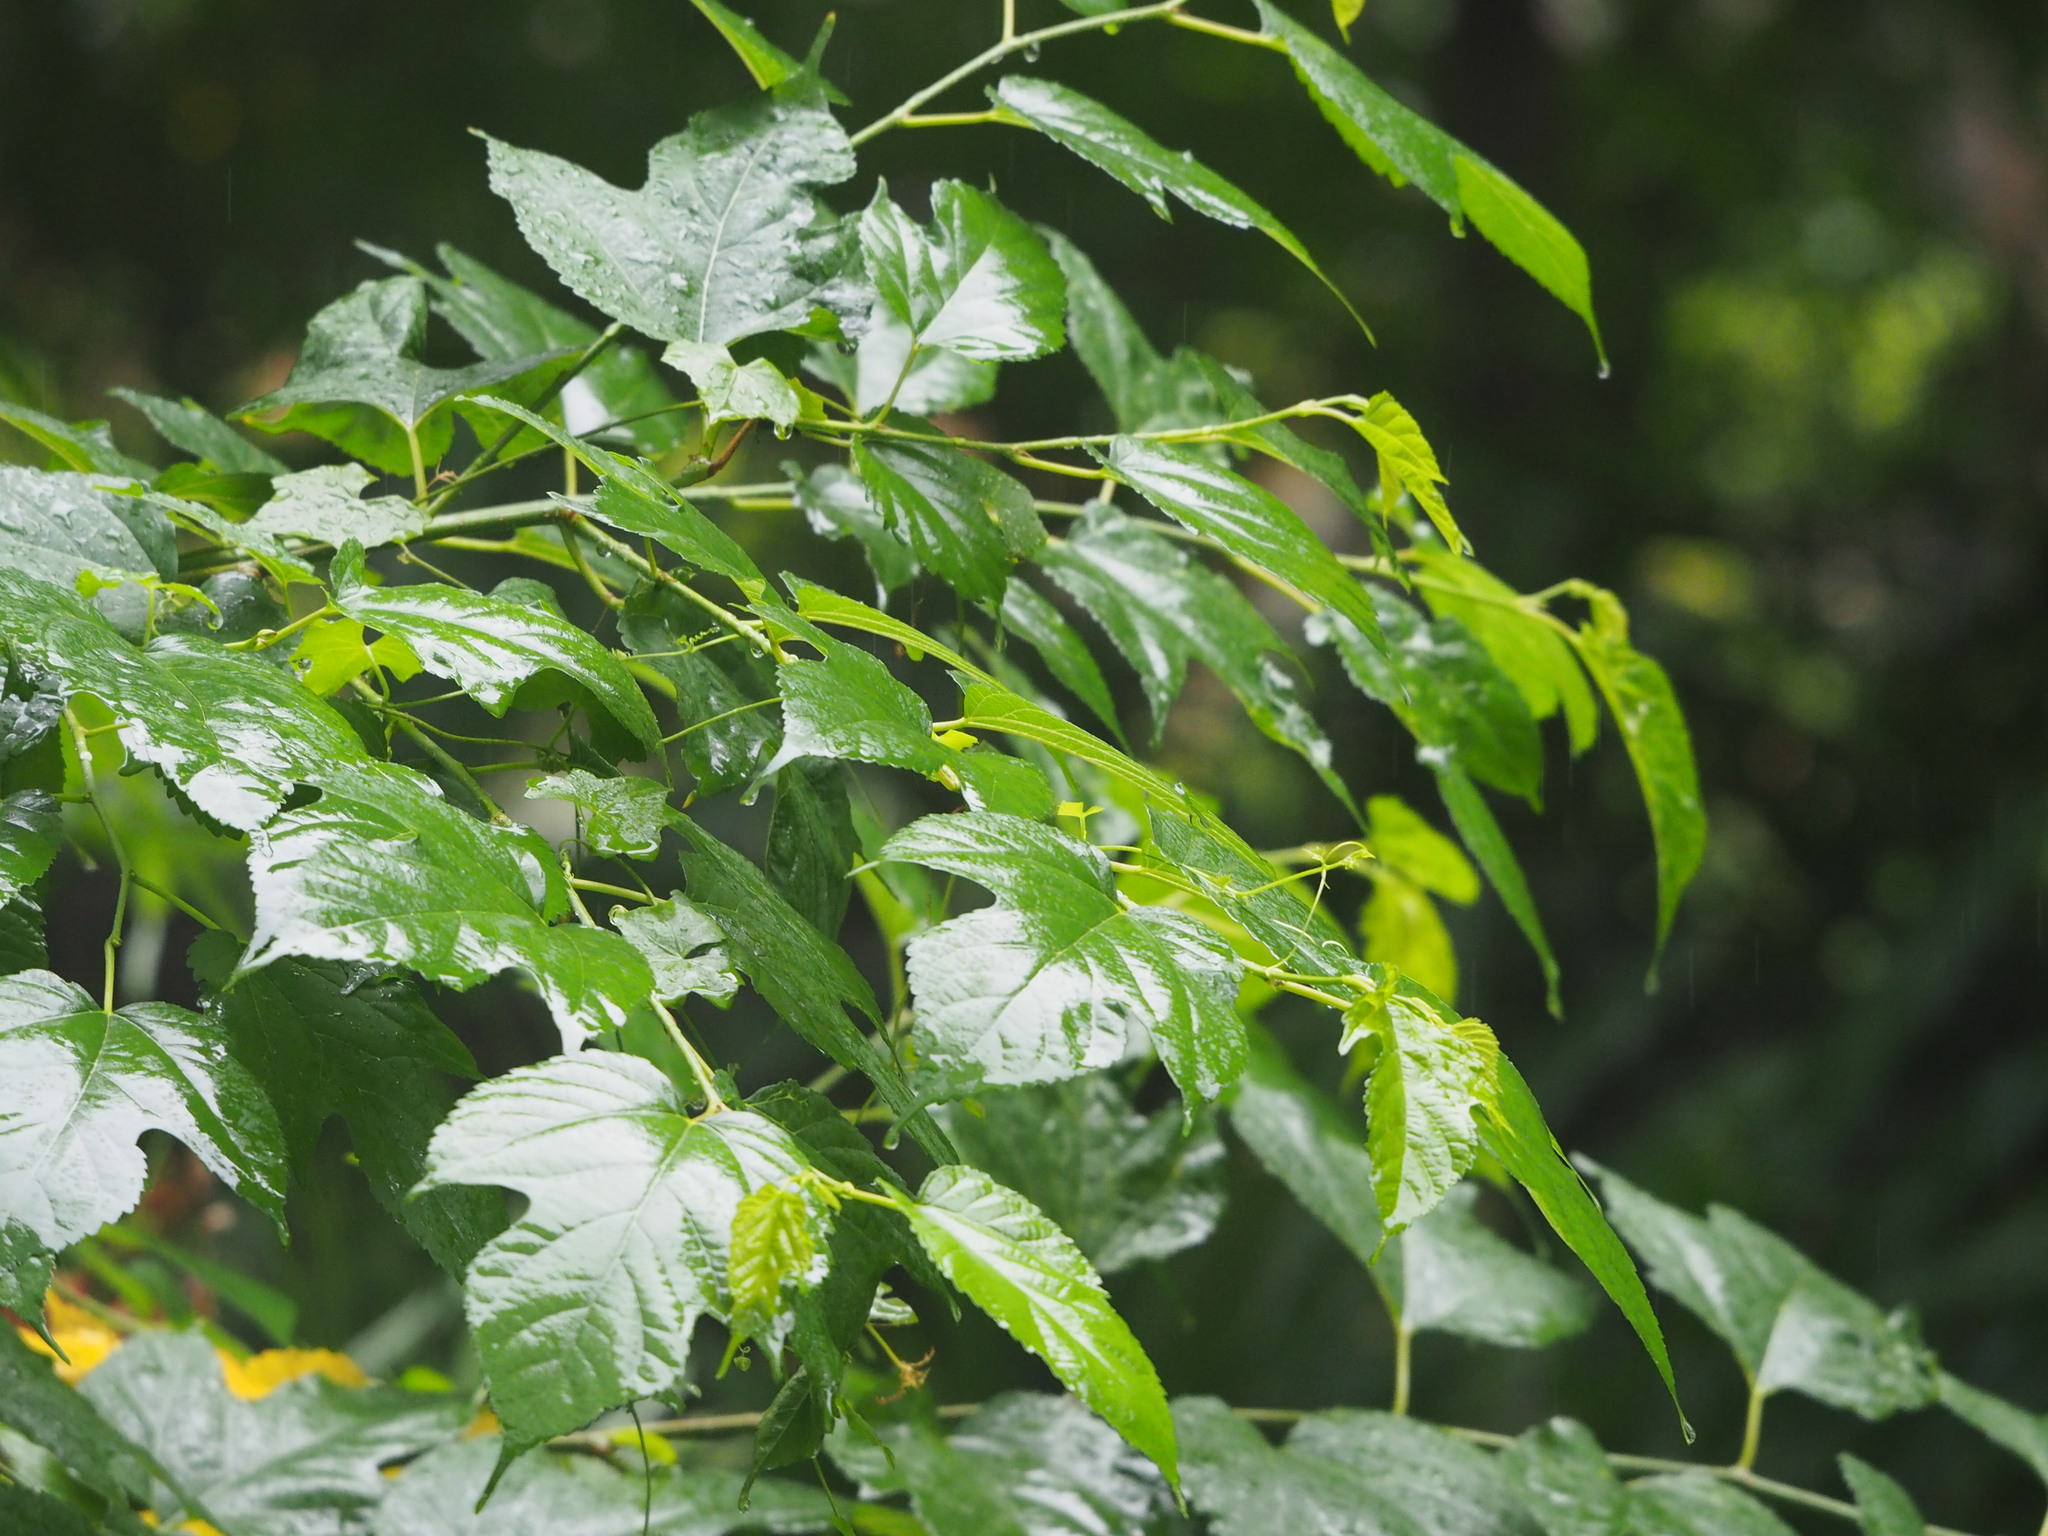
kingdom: Plantae
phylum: Tracheophyta
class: Magnoliopsida
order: Rosales
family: Moraceae
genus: Morus
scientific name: Morus indica
